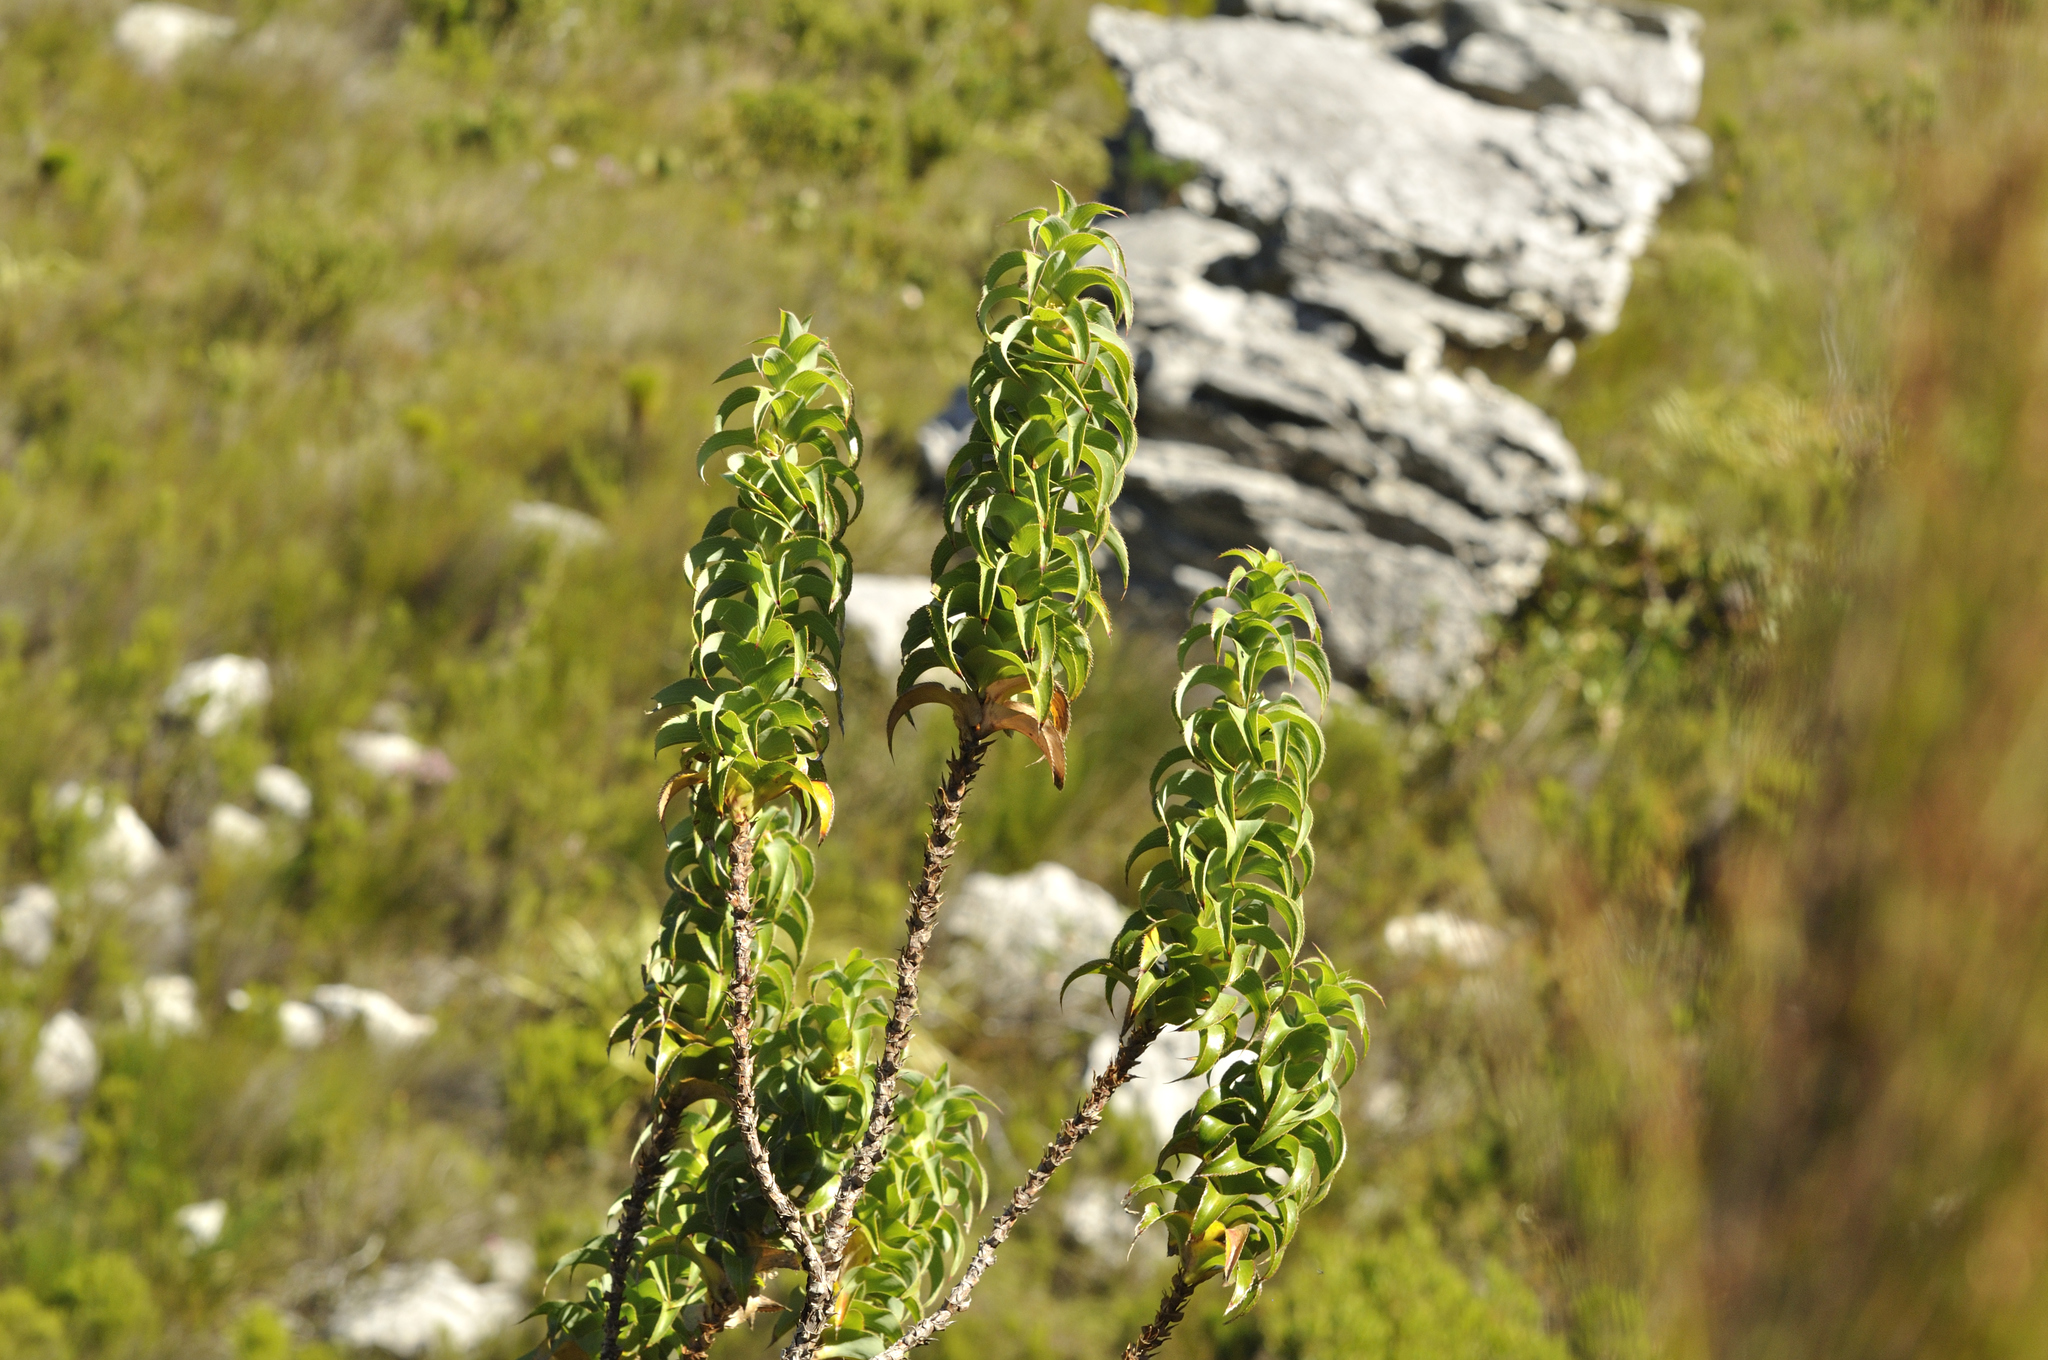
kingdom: Plantae
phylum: Tracheophyta
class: Magnoliopsida
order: Rosales
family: Rosaceae
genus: Cliffortia
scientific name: Cliffortia recurvata
